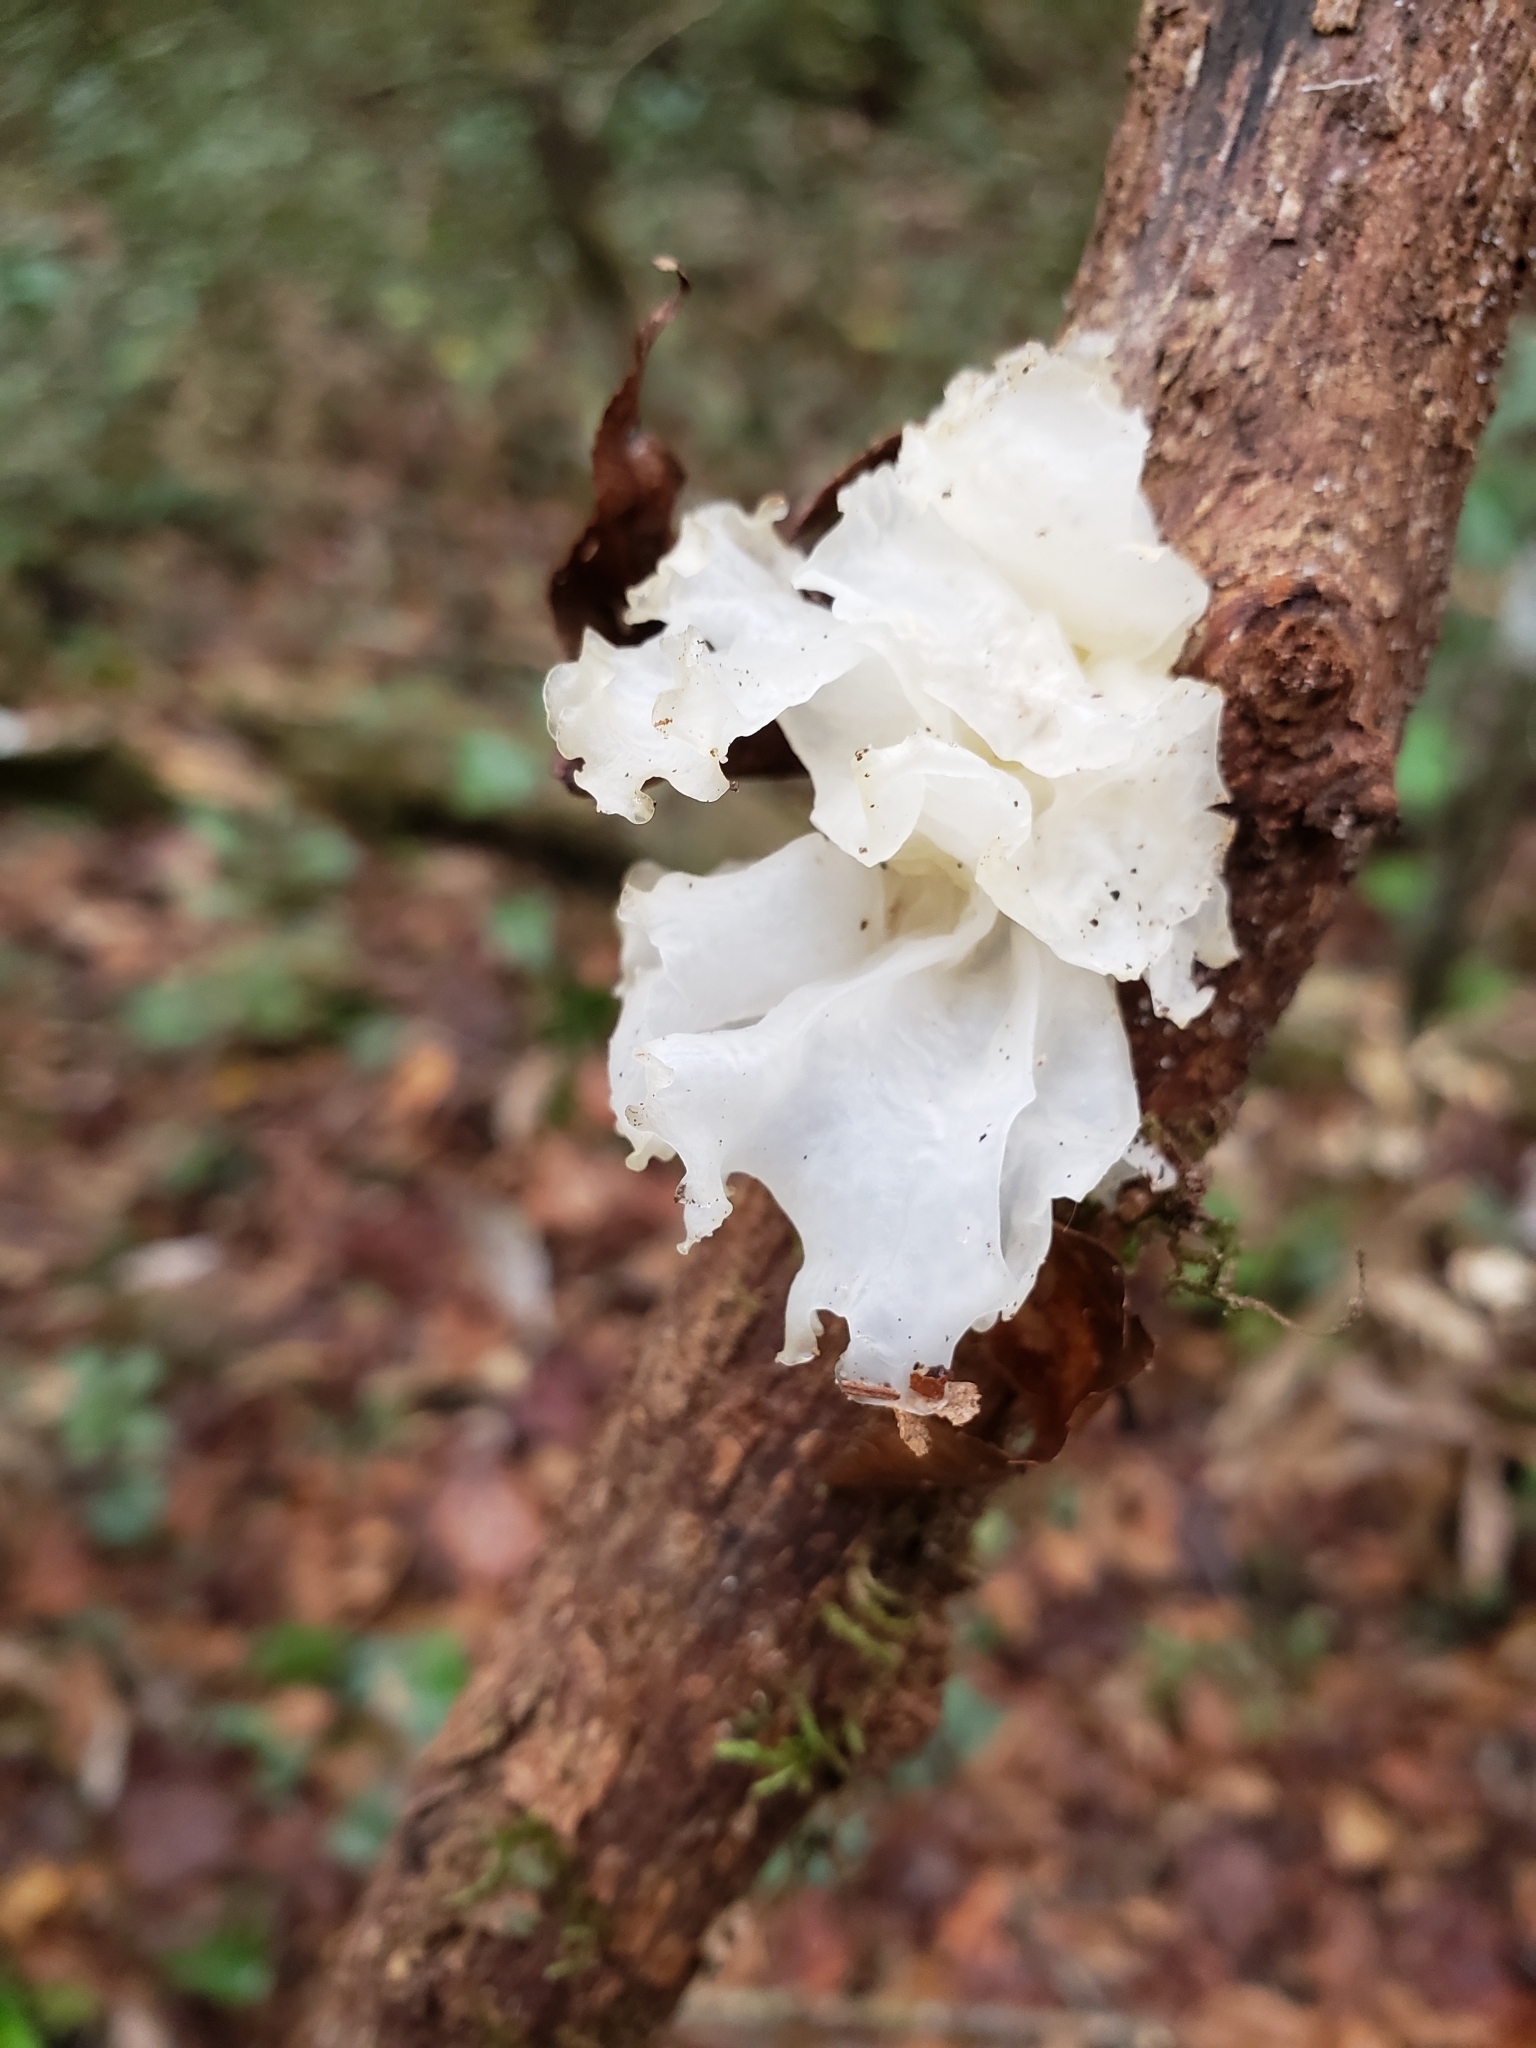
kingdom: Fungi
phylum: Basidiomycota
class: Tremellomycetes
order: Tremellales
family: Tremellaceae
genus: Tremella
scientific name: Tremella fuciformis
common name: Snow fungus
